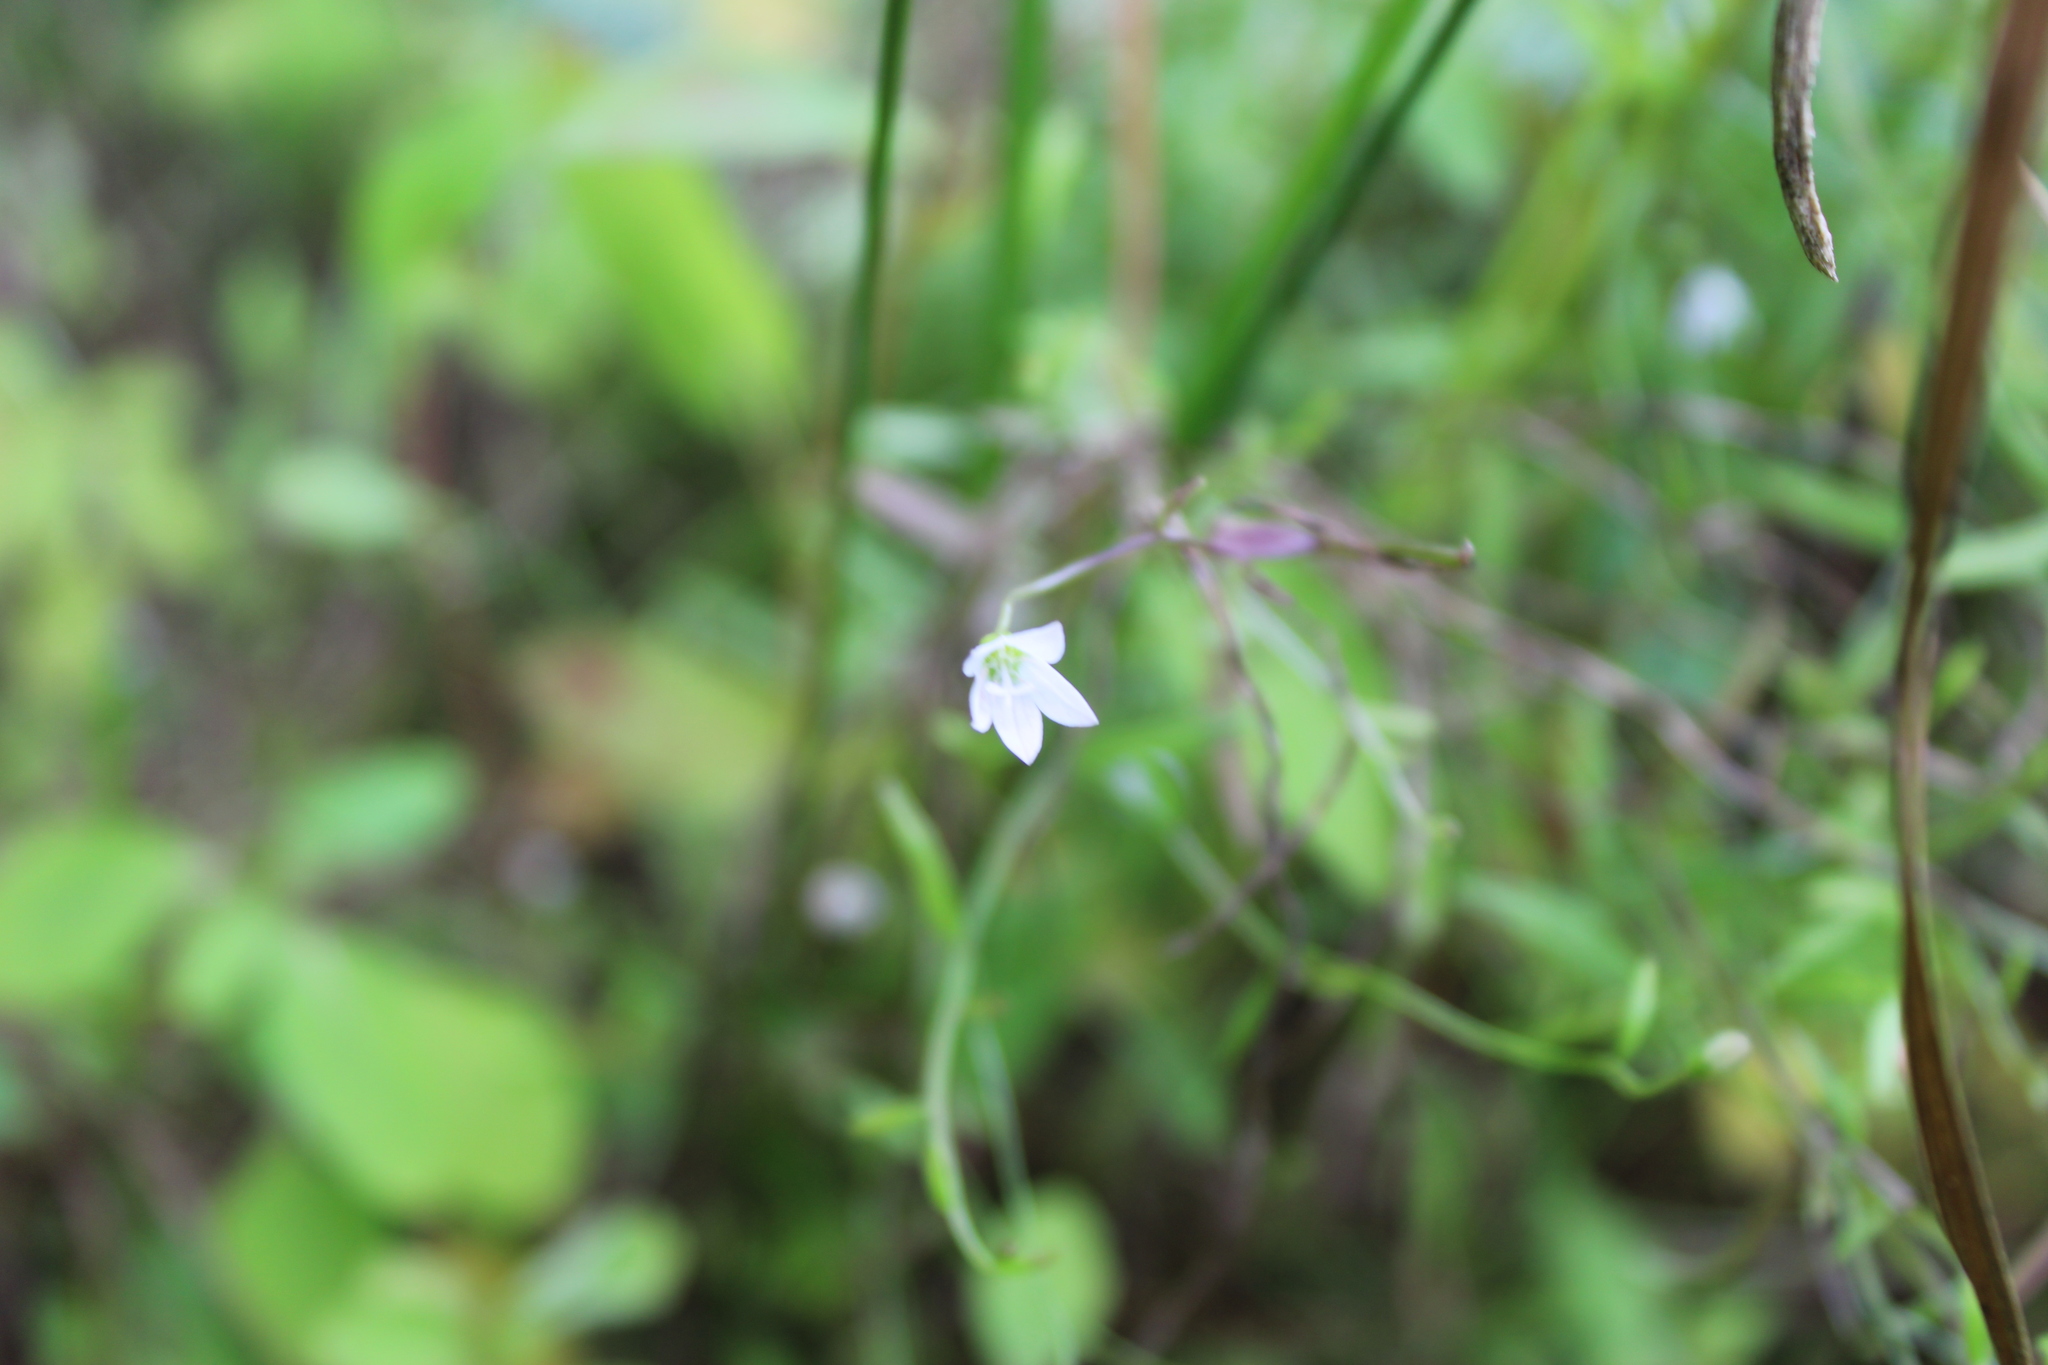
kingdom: Plantae
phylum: Tracheophyta
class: Magnoliopsida
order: Asterales
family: Campanulaceae
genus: Palustricodon
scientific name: Palustricodon aparinoides
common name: Bedstraw bellflower
